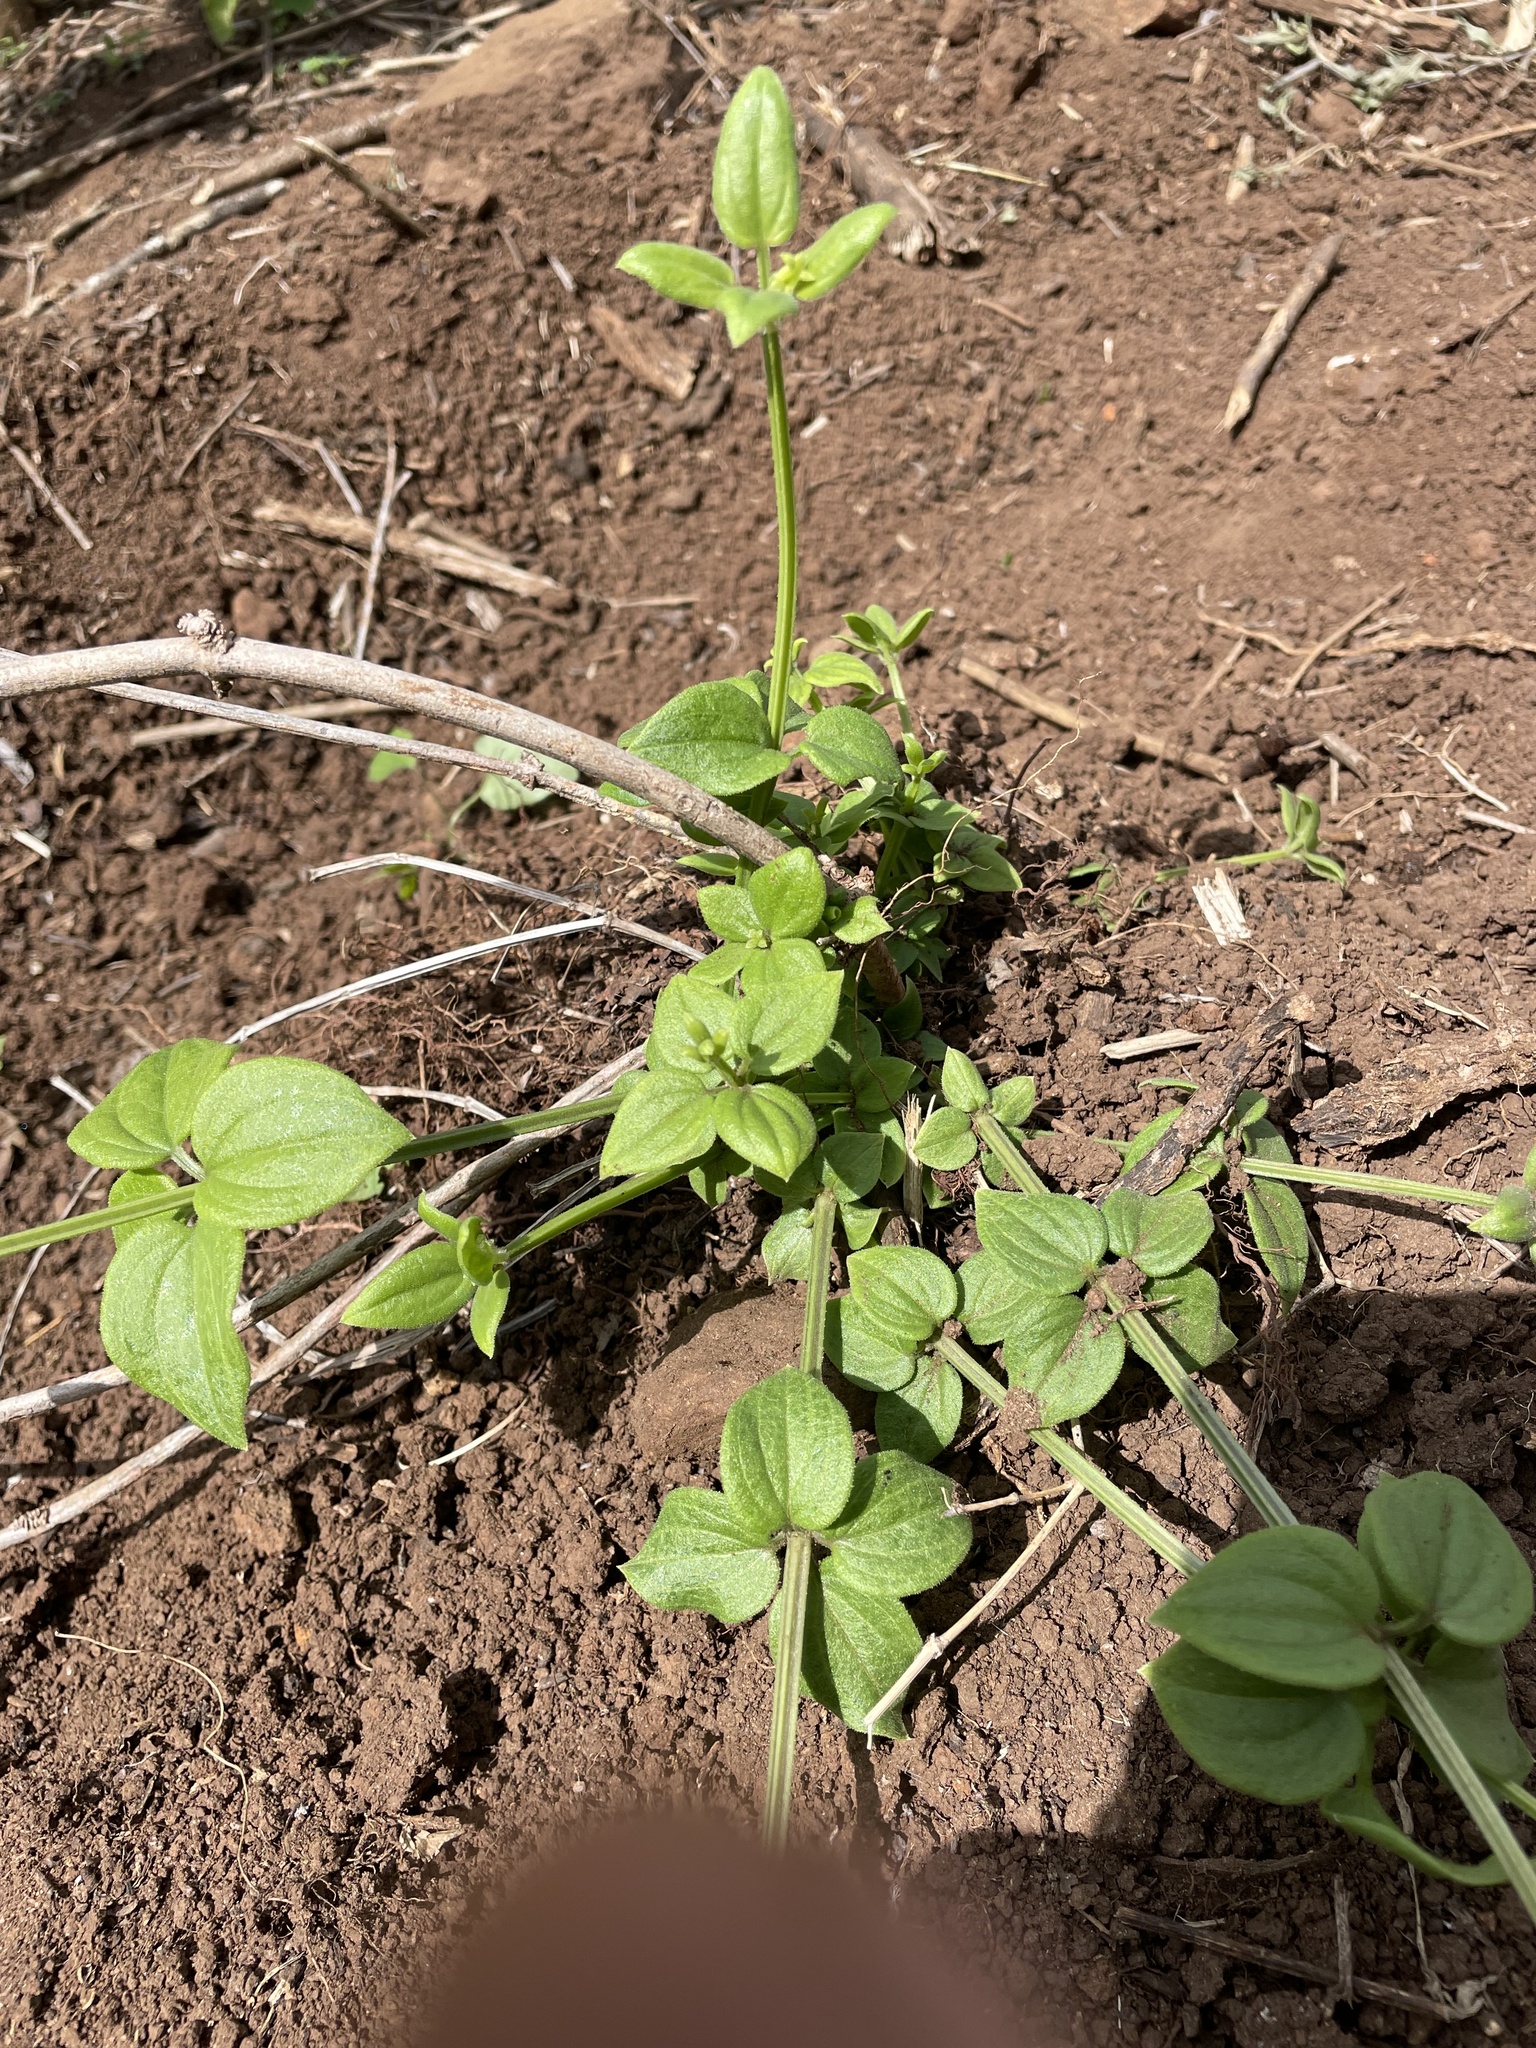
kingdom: Plantae
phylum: Tracheophyta
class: Magnoliopsida
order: Gentianales
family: Rubiaceae
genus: Rubia
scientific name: Rubia cordifolia
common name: Indian madder
